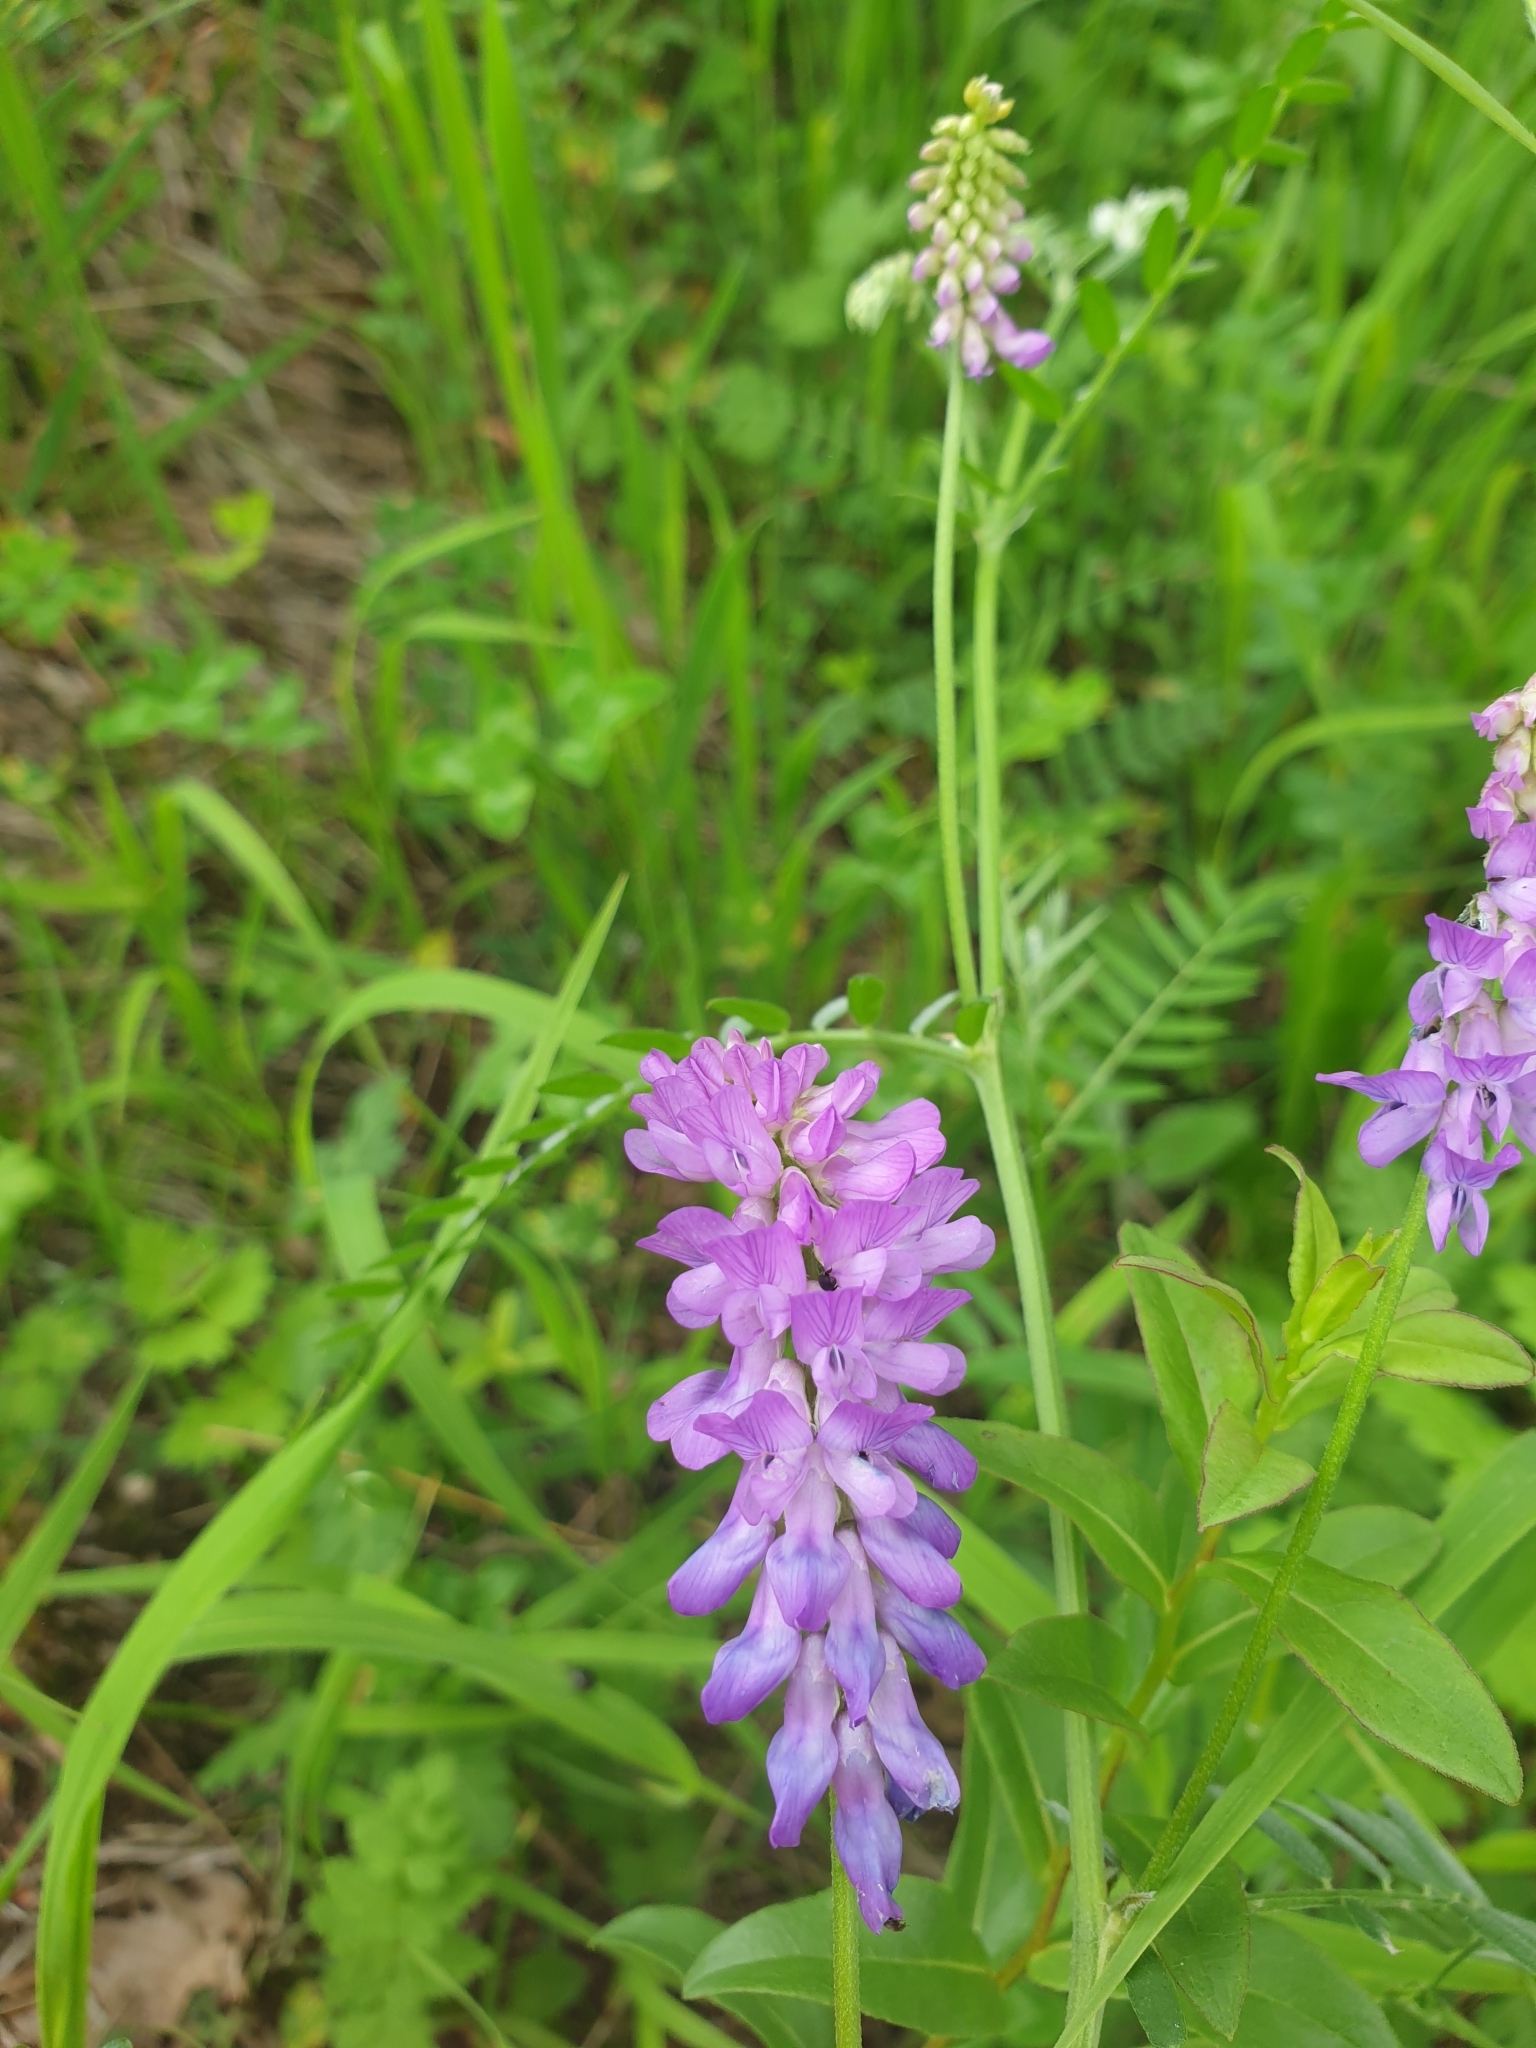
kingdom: Plantae
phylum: Tracheophyta
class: Magnoliopsida
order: Fabales
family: Fabaceae
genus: Vicia
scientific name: Vicia cracca
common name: Bird vetch
